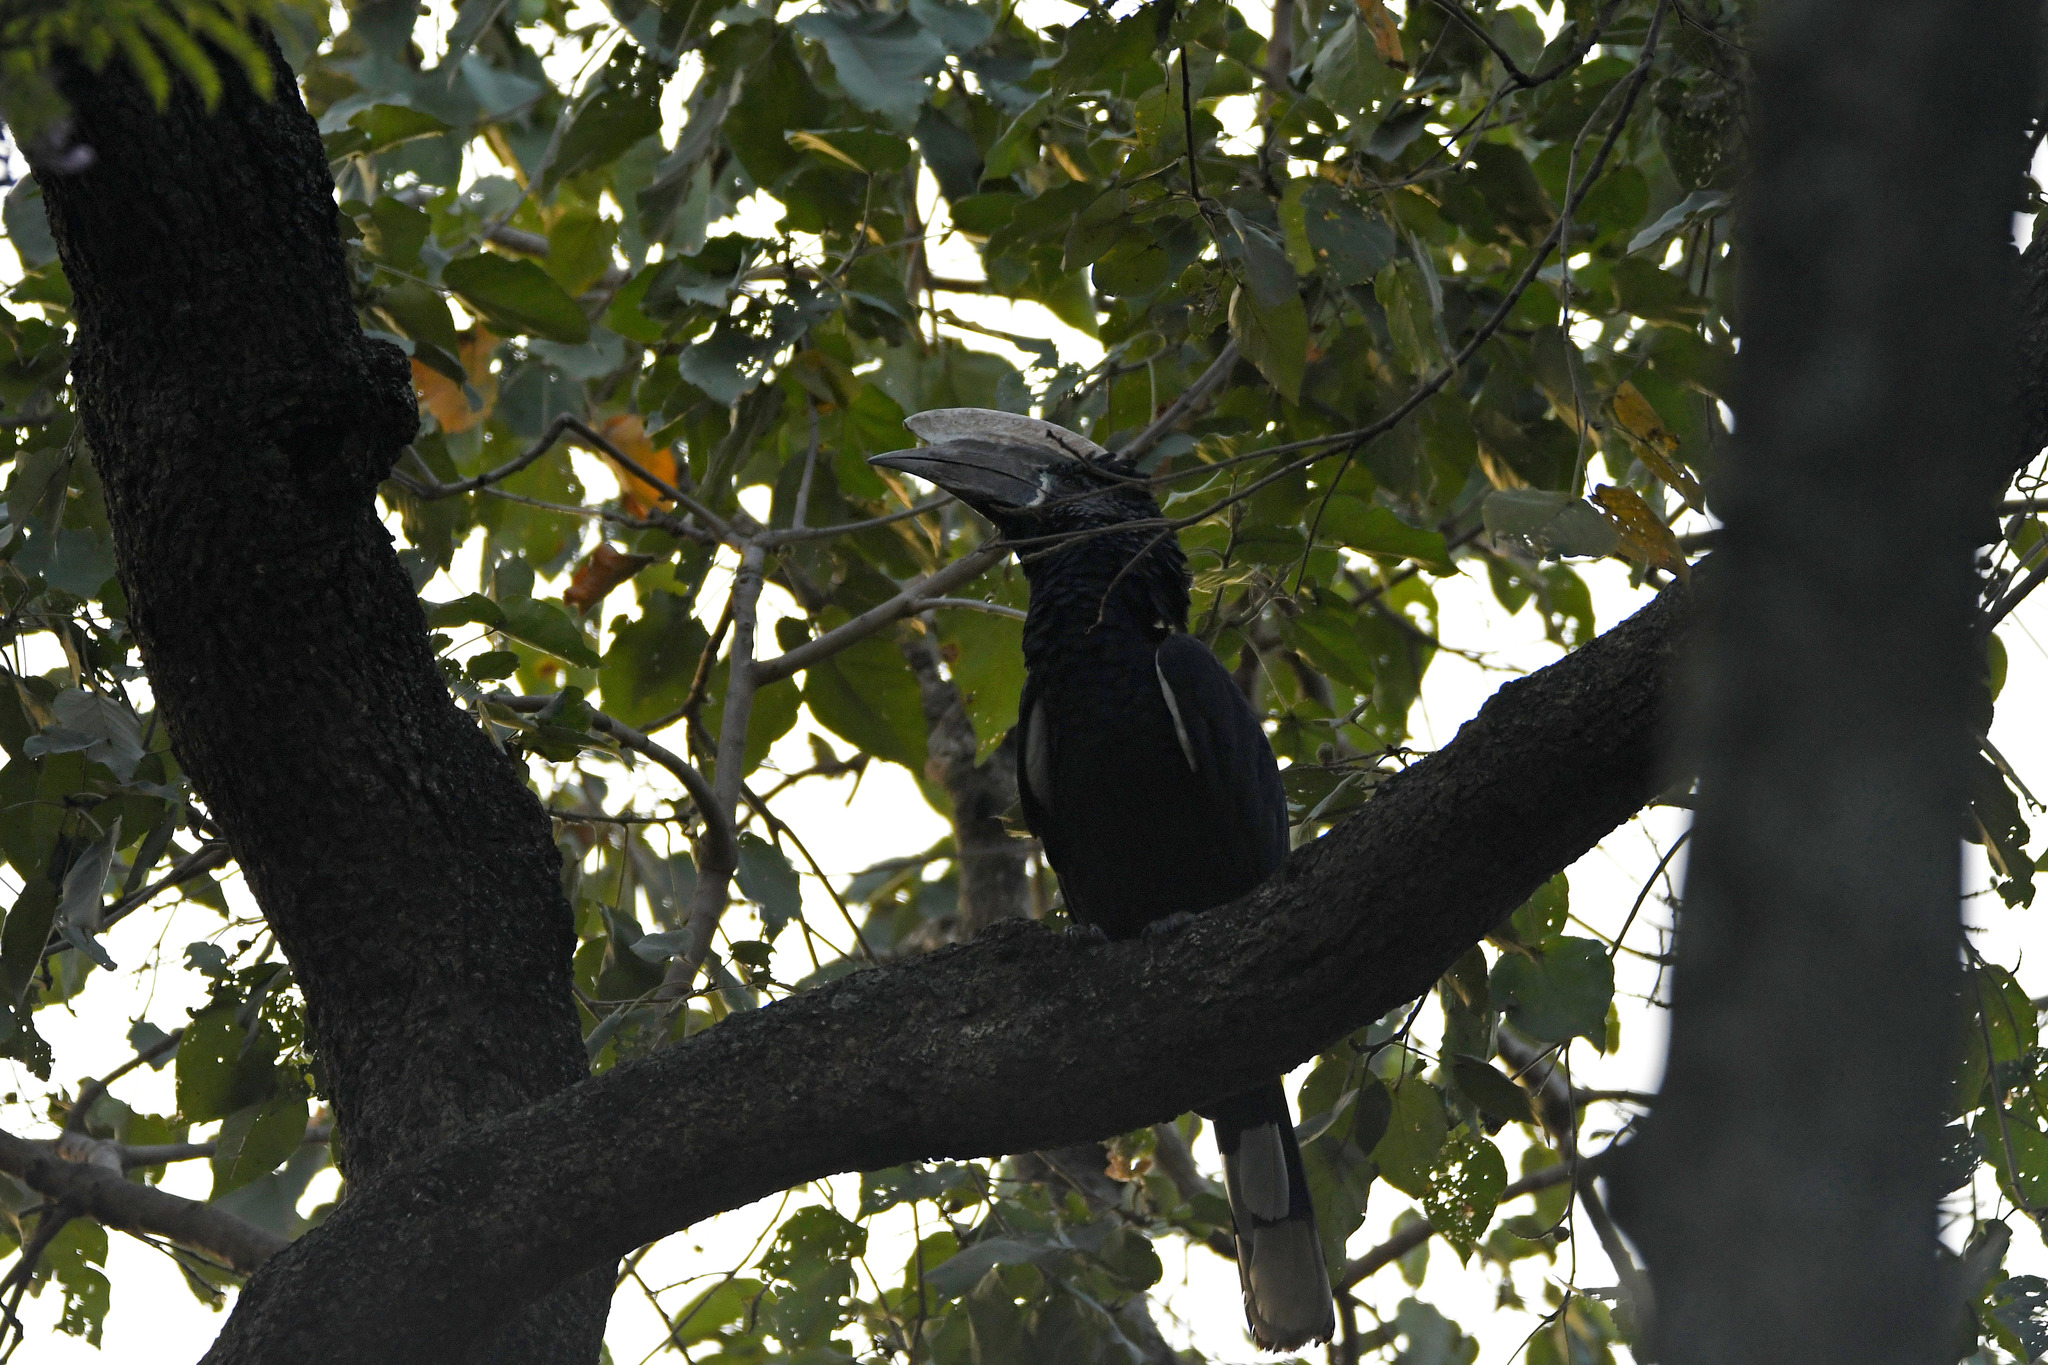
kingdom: Animalia
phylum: Chordata
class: Aves
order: Bucerotiformes
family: Bucerotidae
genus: Bycanistes
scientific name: Bycanistes brevis
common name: Silvery-cheeked hornbill
